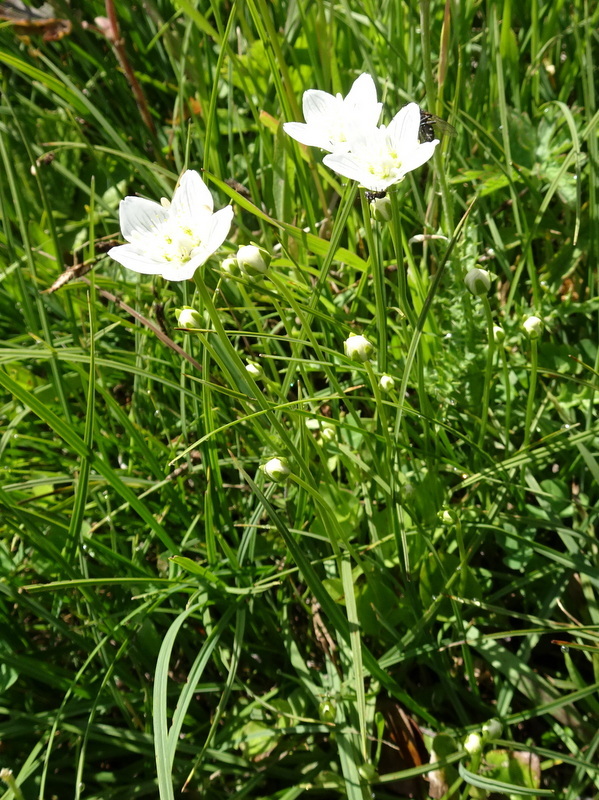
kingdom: Plantae
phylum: Tracheophyta
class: Magnoliopsida
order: Celastrales
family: Parnassiaceae
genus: Parnassia
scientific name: Parnassia palustris
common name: Grass-of-parnassus
